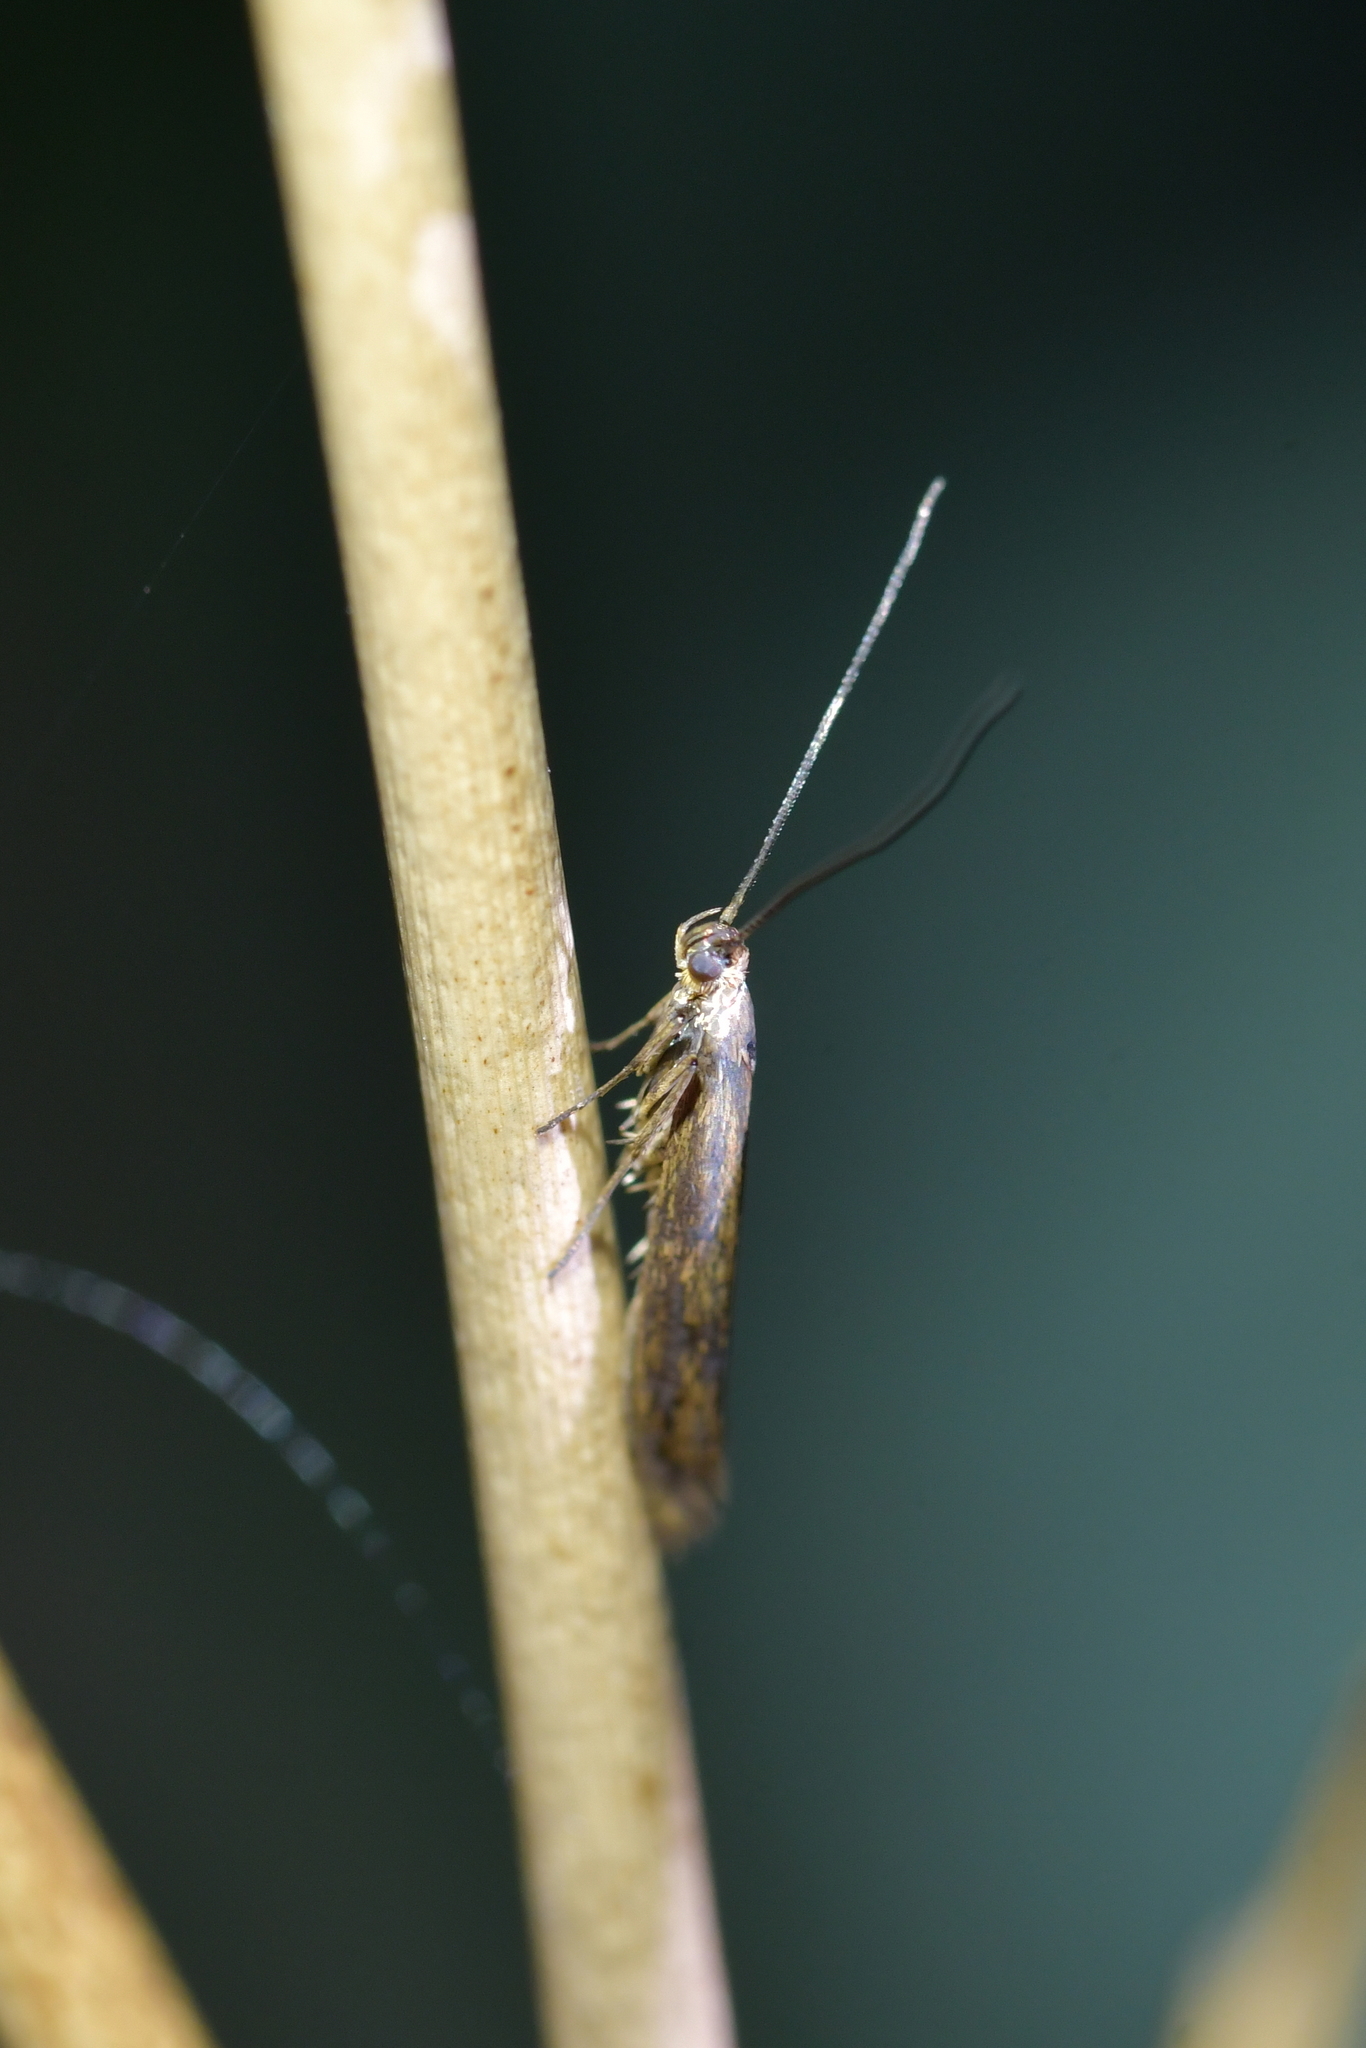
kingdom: Animalia
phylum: Arthropoda
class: Insecta
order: Lepidoptera
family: Glyphipterigidae
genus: Pantosperma
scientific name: Pantosperma holochalca
